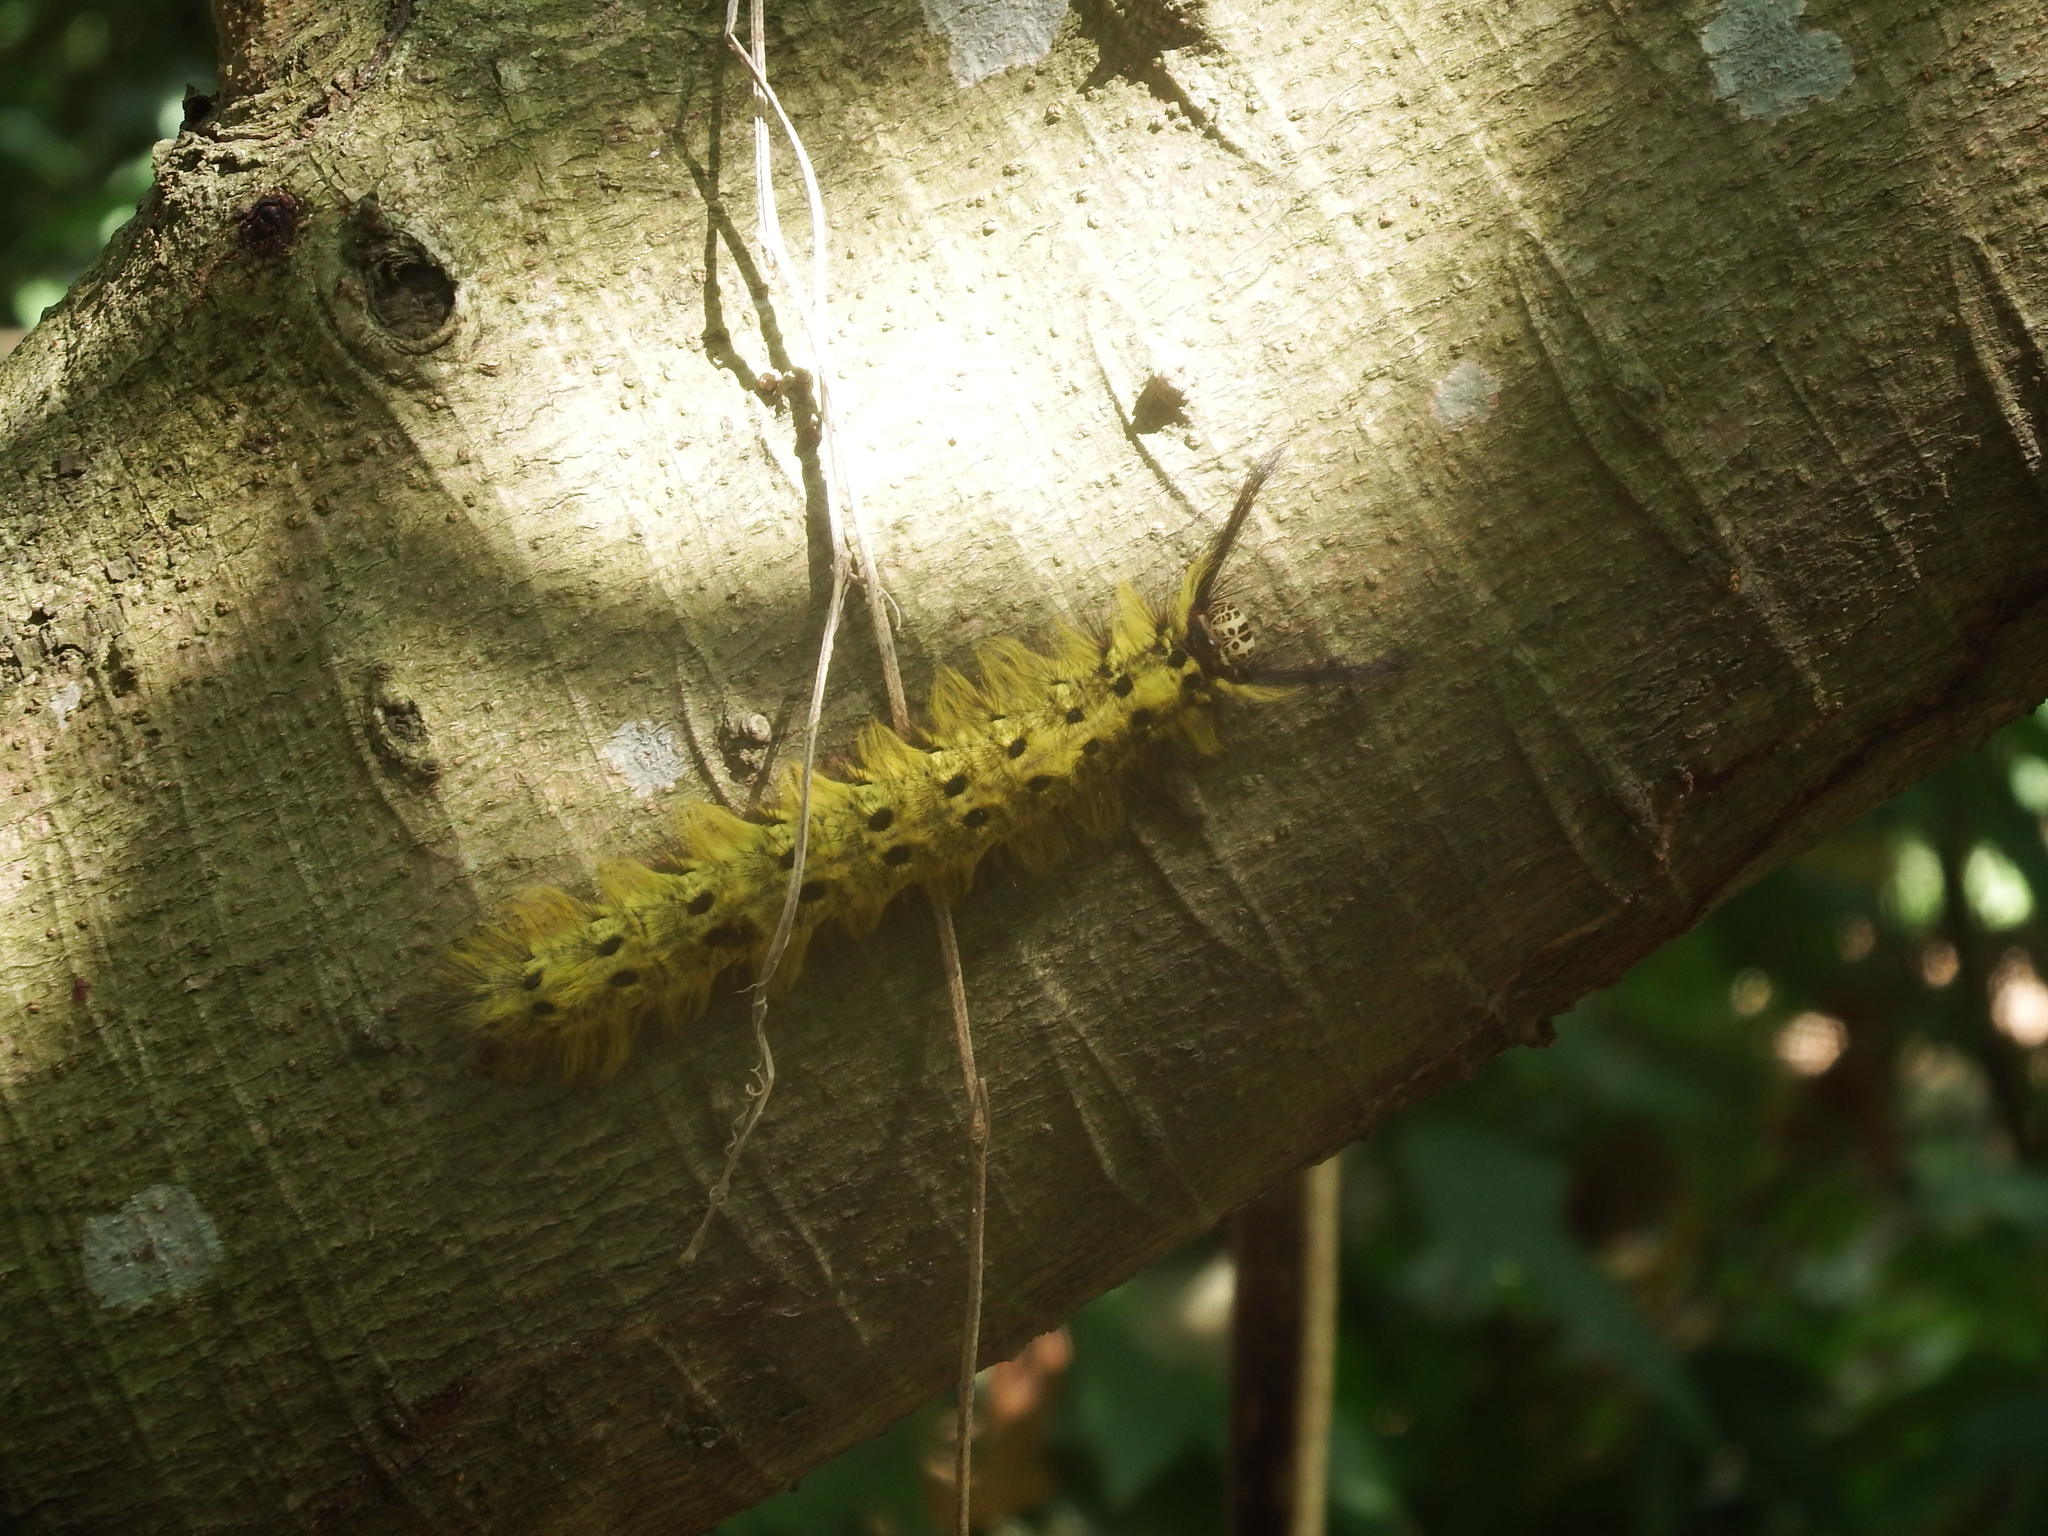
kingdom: Animalia
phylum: Arthropoda
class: Insecta
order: Lepidoptera
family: Lasiocampidae
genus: Trabala
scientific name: Trabala vishnou
